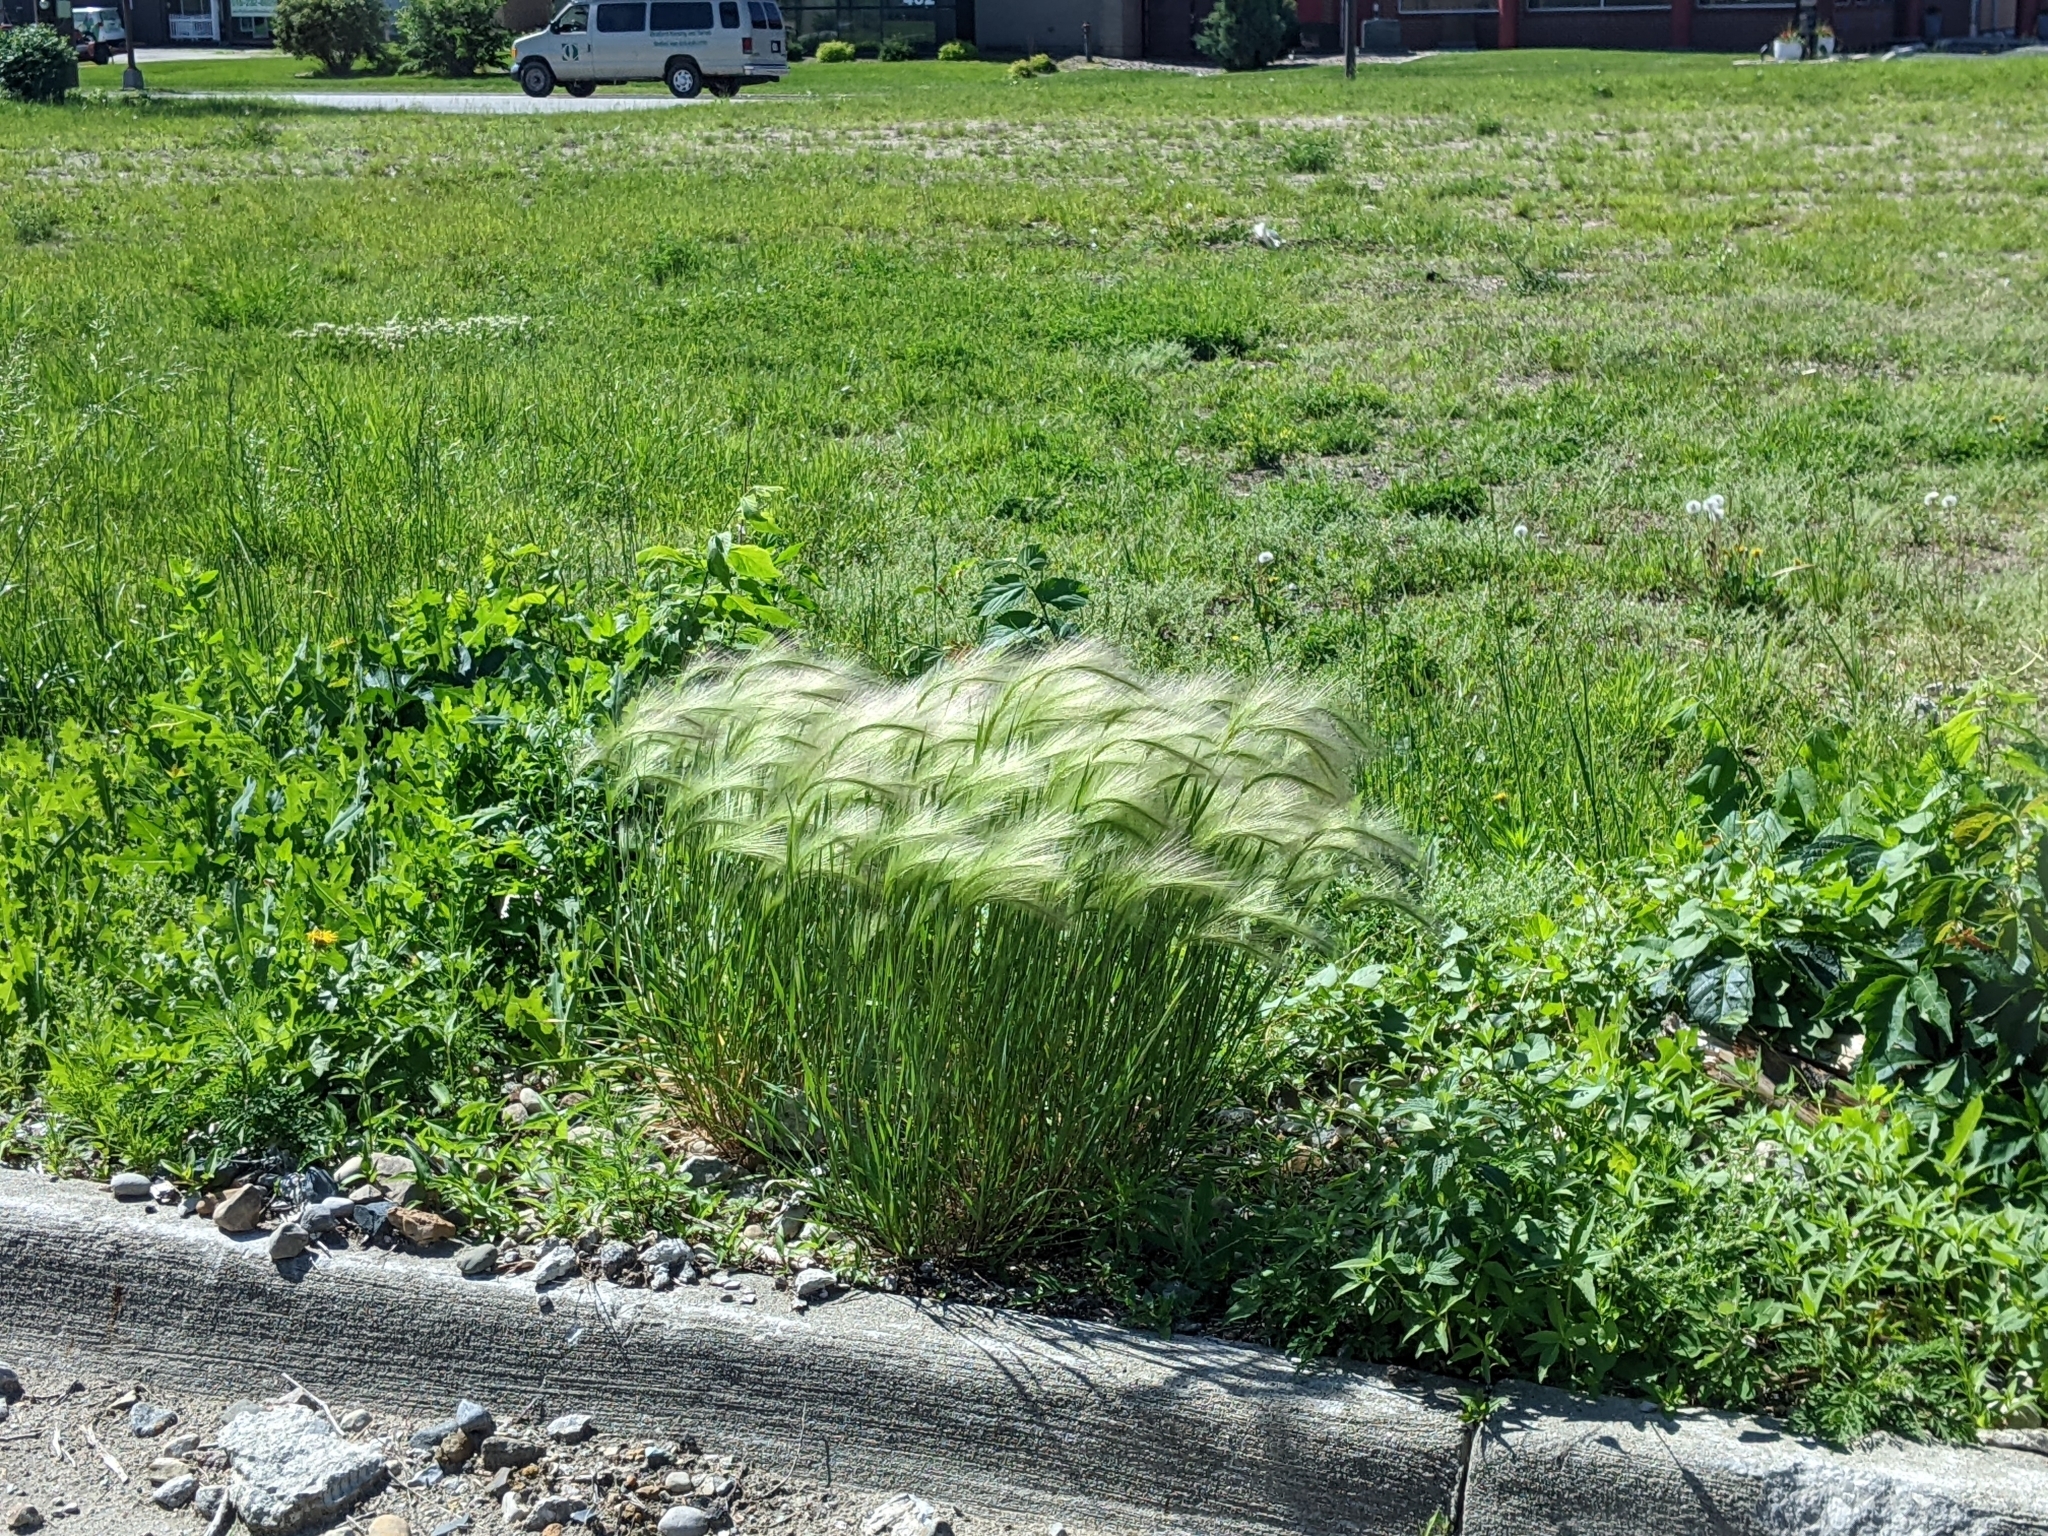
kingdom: Plantae
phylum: Tracheophyta
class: Liliopsida
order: Poales
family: Poaceae
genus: Hordeum
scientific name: Hordeum jubatum
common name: Foxtail barley
